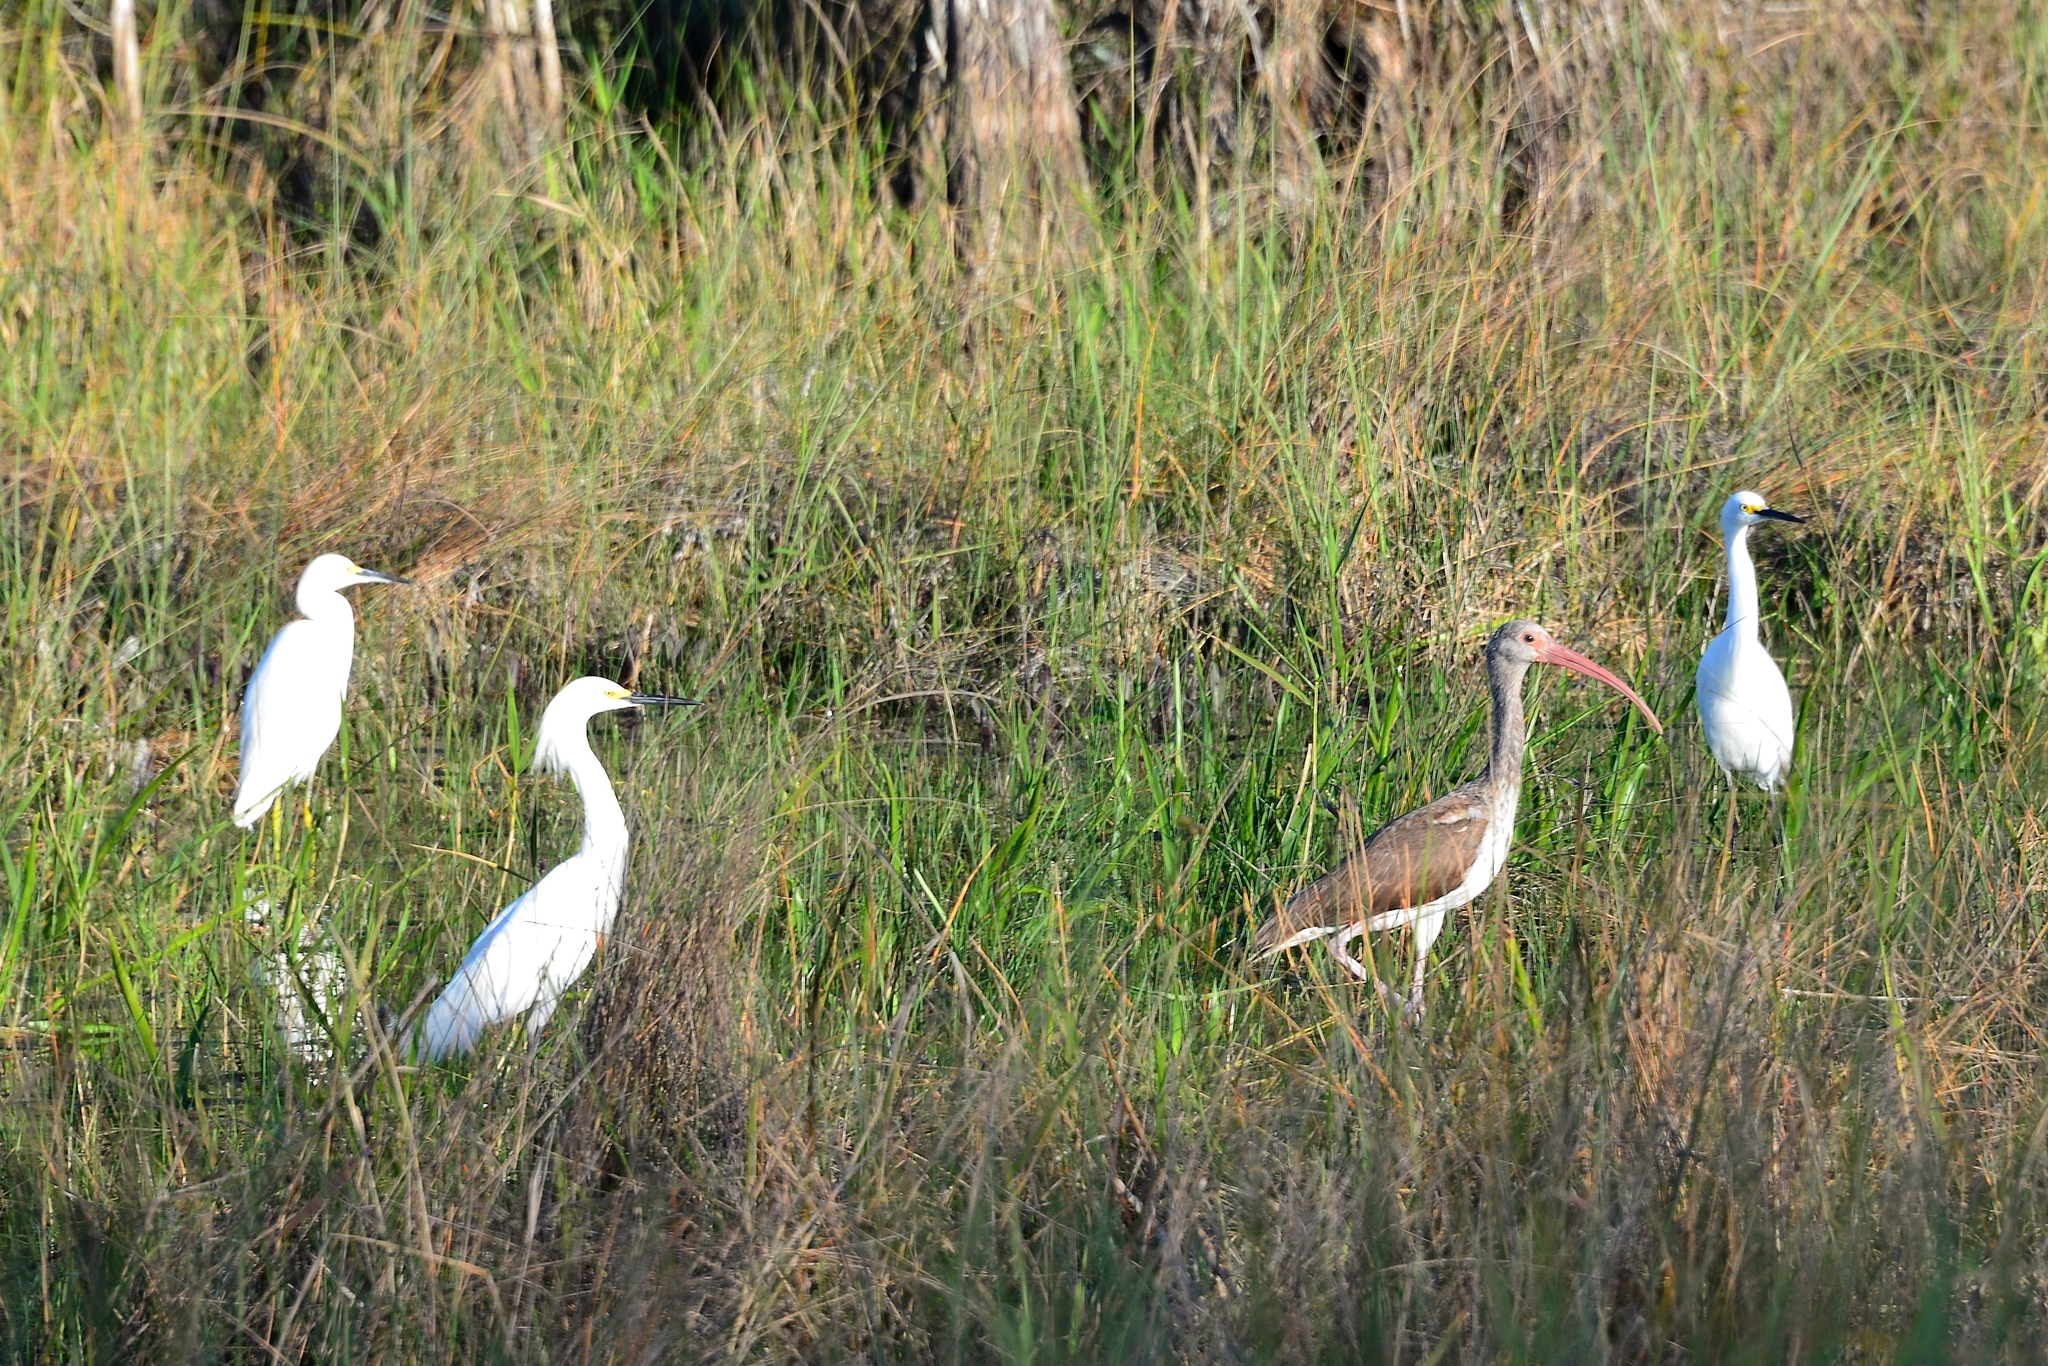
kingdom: Animalia
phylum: Chordata
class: Aves
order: Pelecaniformes
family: Ardeidae
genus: Egretta
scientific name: Egretta thula
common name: Snowy egret
